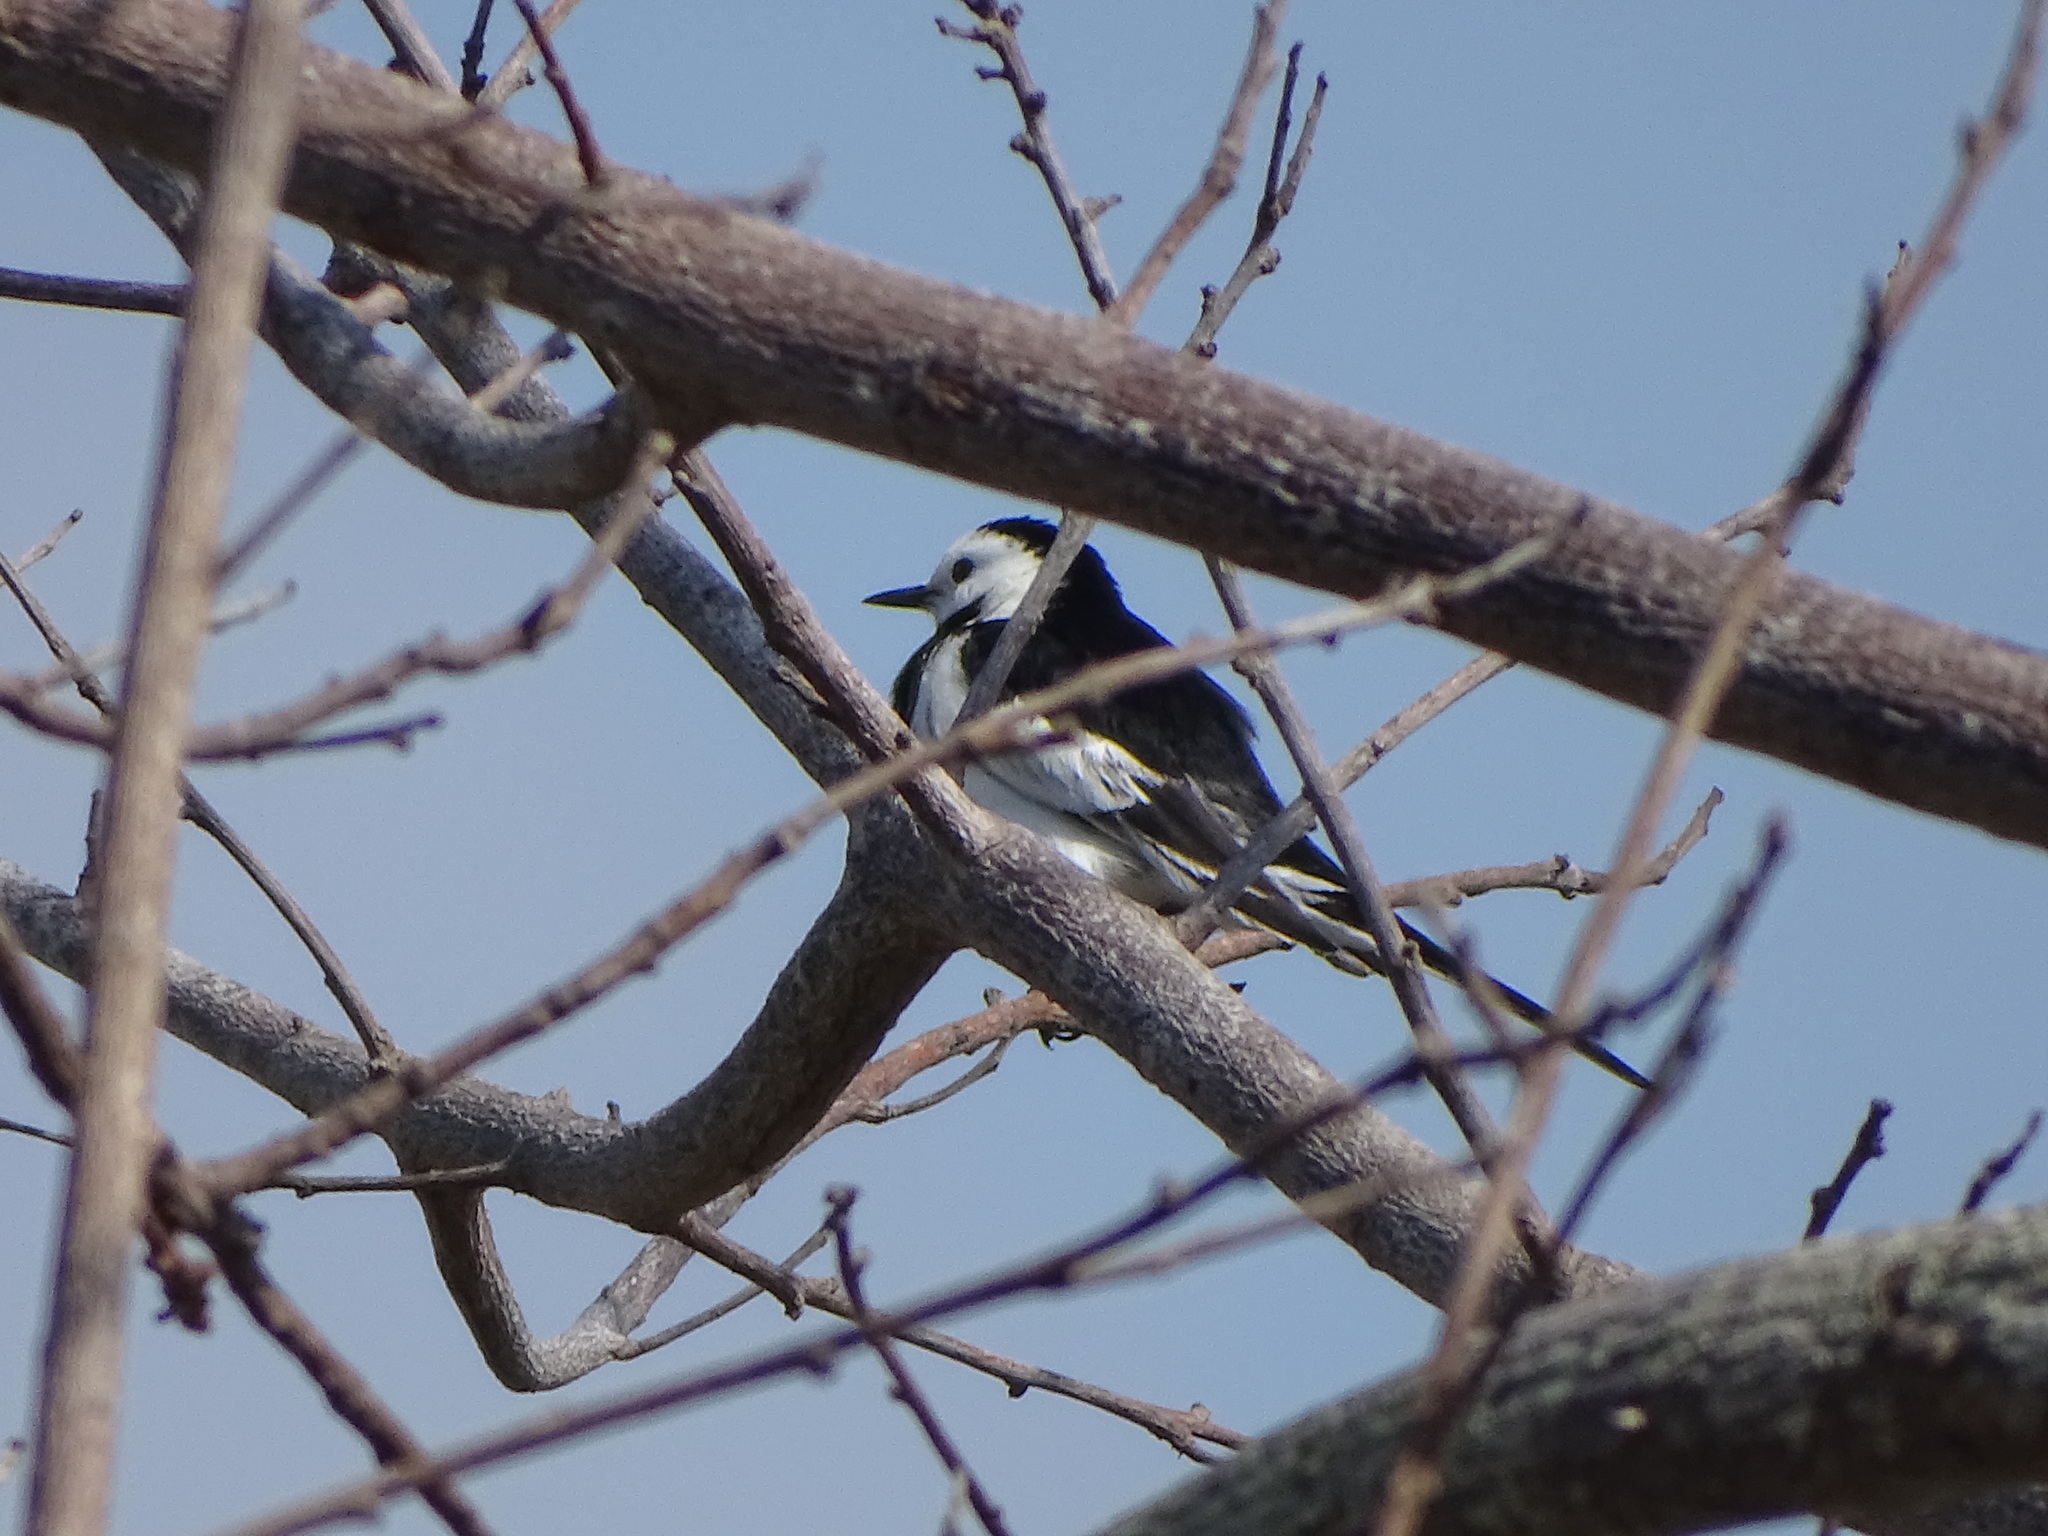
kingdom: Animalia
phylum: Chordata
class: Aves
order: Passeriformes
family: Motacillidae
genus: Motacilla
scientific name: Motacilla alba
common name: White wagtail
